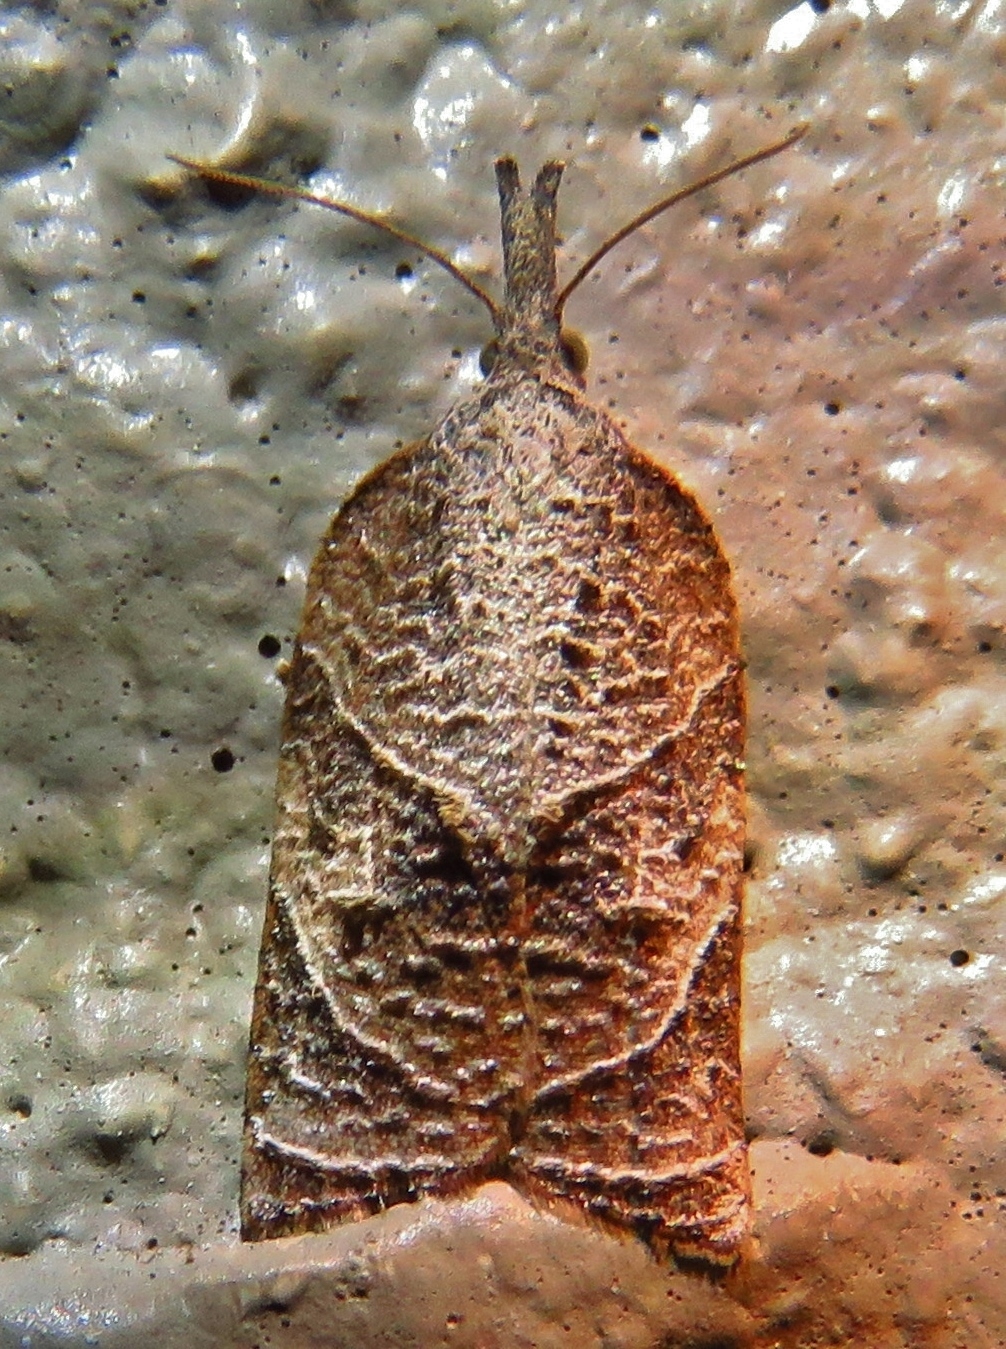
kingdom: Animalia
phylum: Arthropoda
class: Insecta
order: Lepidoptera
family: Tortricidae
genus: Platynota
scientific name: Platynota rostrana
